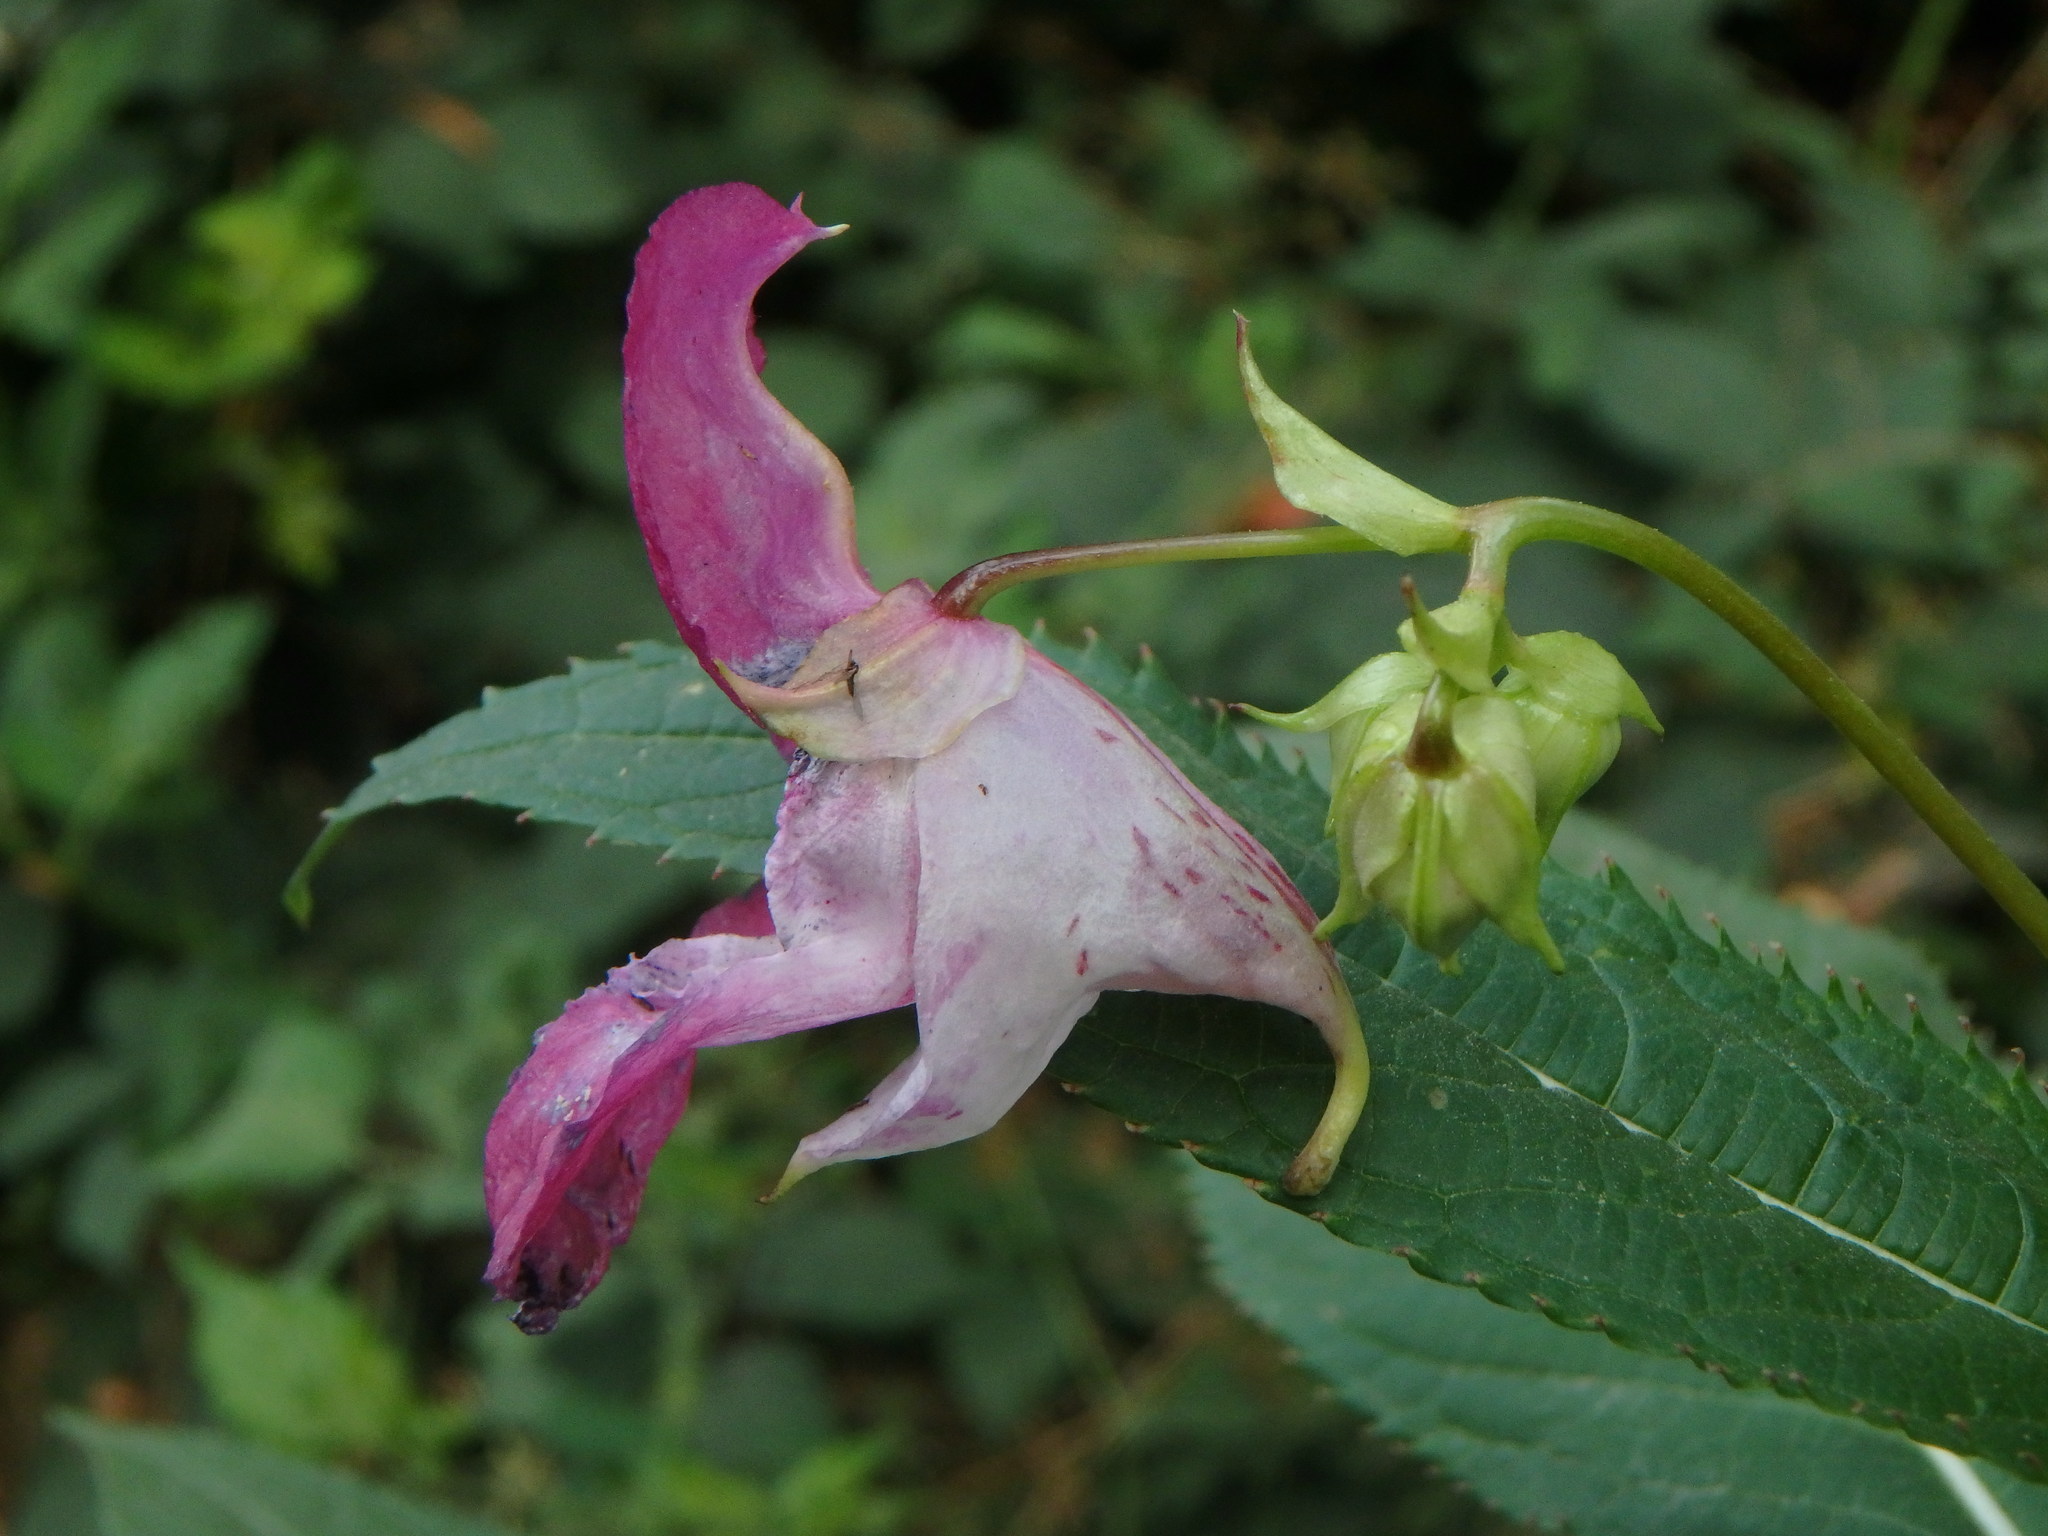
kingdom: Plantae
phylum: Tracheophyta
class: Magnoliopsida
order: Ericales
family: Balsaminaceae
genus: Impatiens
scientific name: Impatiens glandulifera
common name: Himalayan balsam
